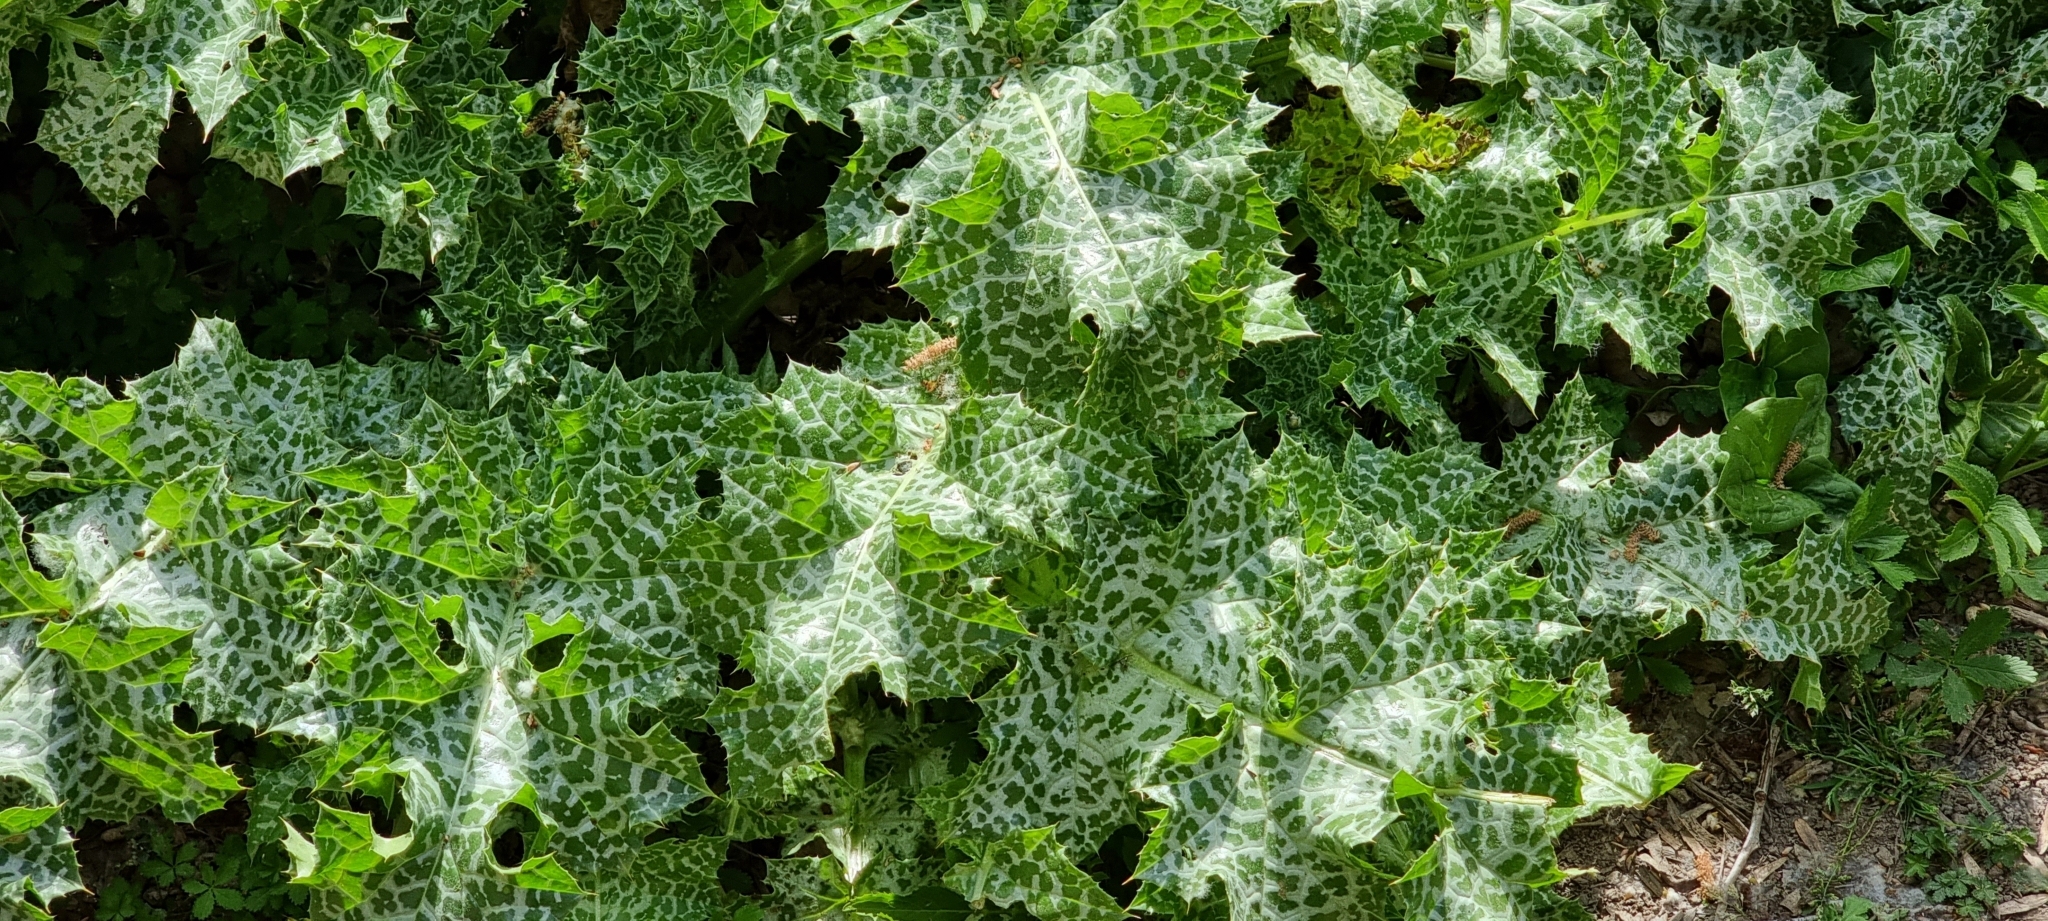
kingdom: Plantae
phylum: Tracheophyta
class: Magnoliopsida
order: Asterales
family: Asteraceae
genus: Silybum
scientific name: Silybum marianum
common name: Milk thistle
